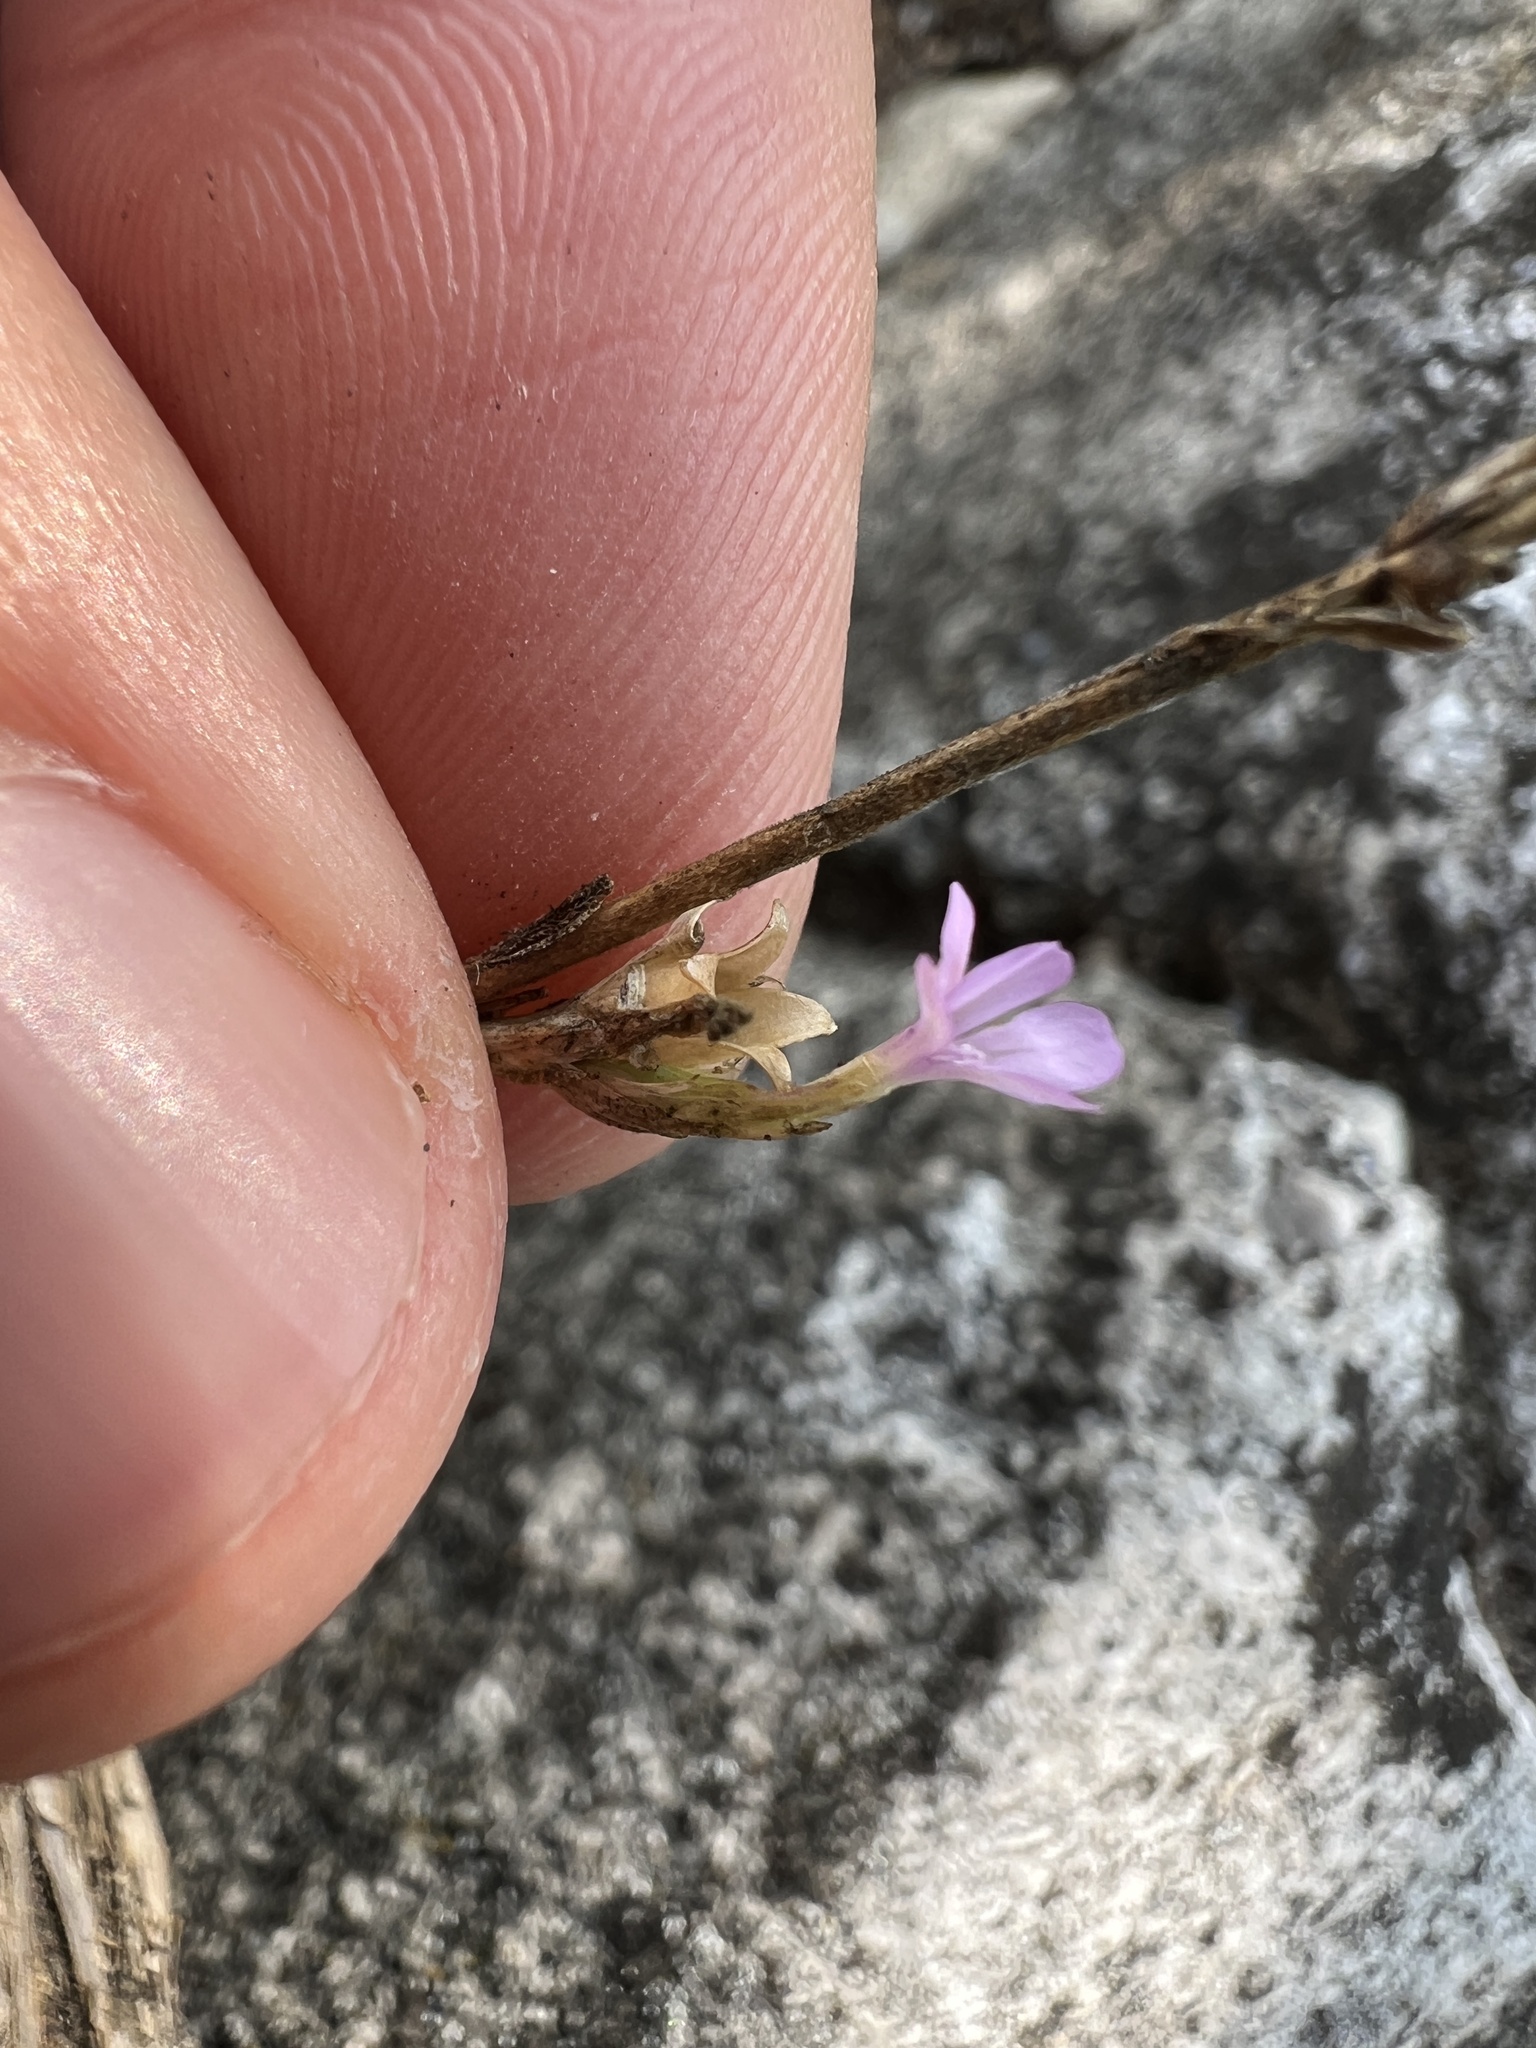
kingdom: Plantae
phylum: Tracheophyta
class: Magnoliopsida
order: Caryophyllales
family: Caryophyllaceae
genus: Petrorhagia
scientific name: Petrorhagia prolifera
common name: Proliferous pink
